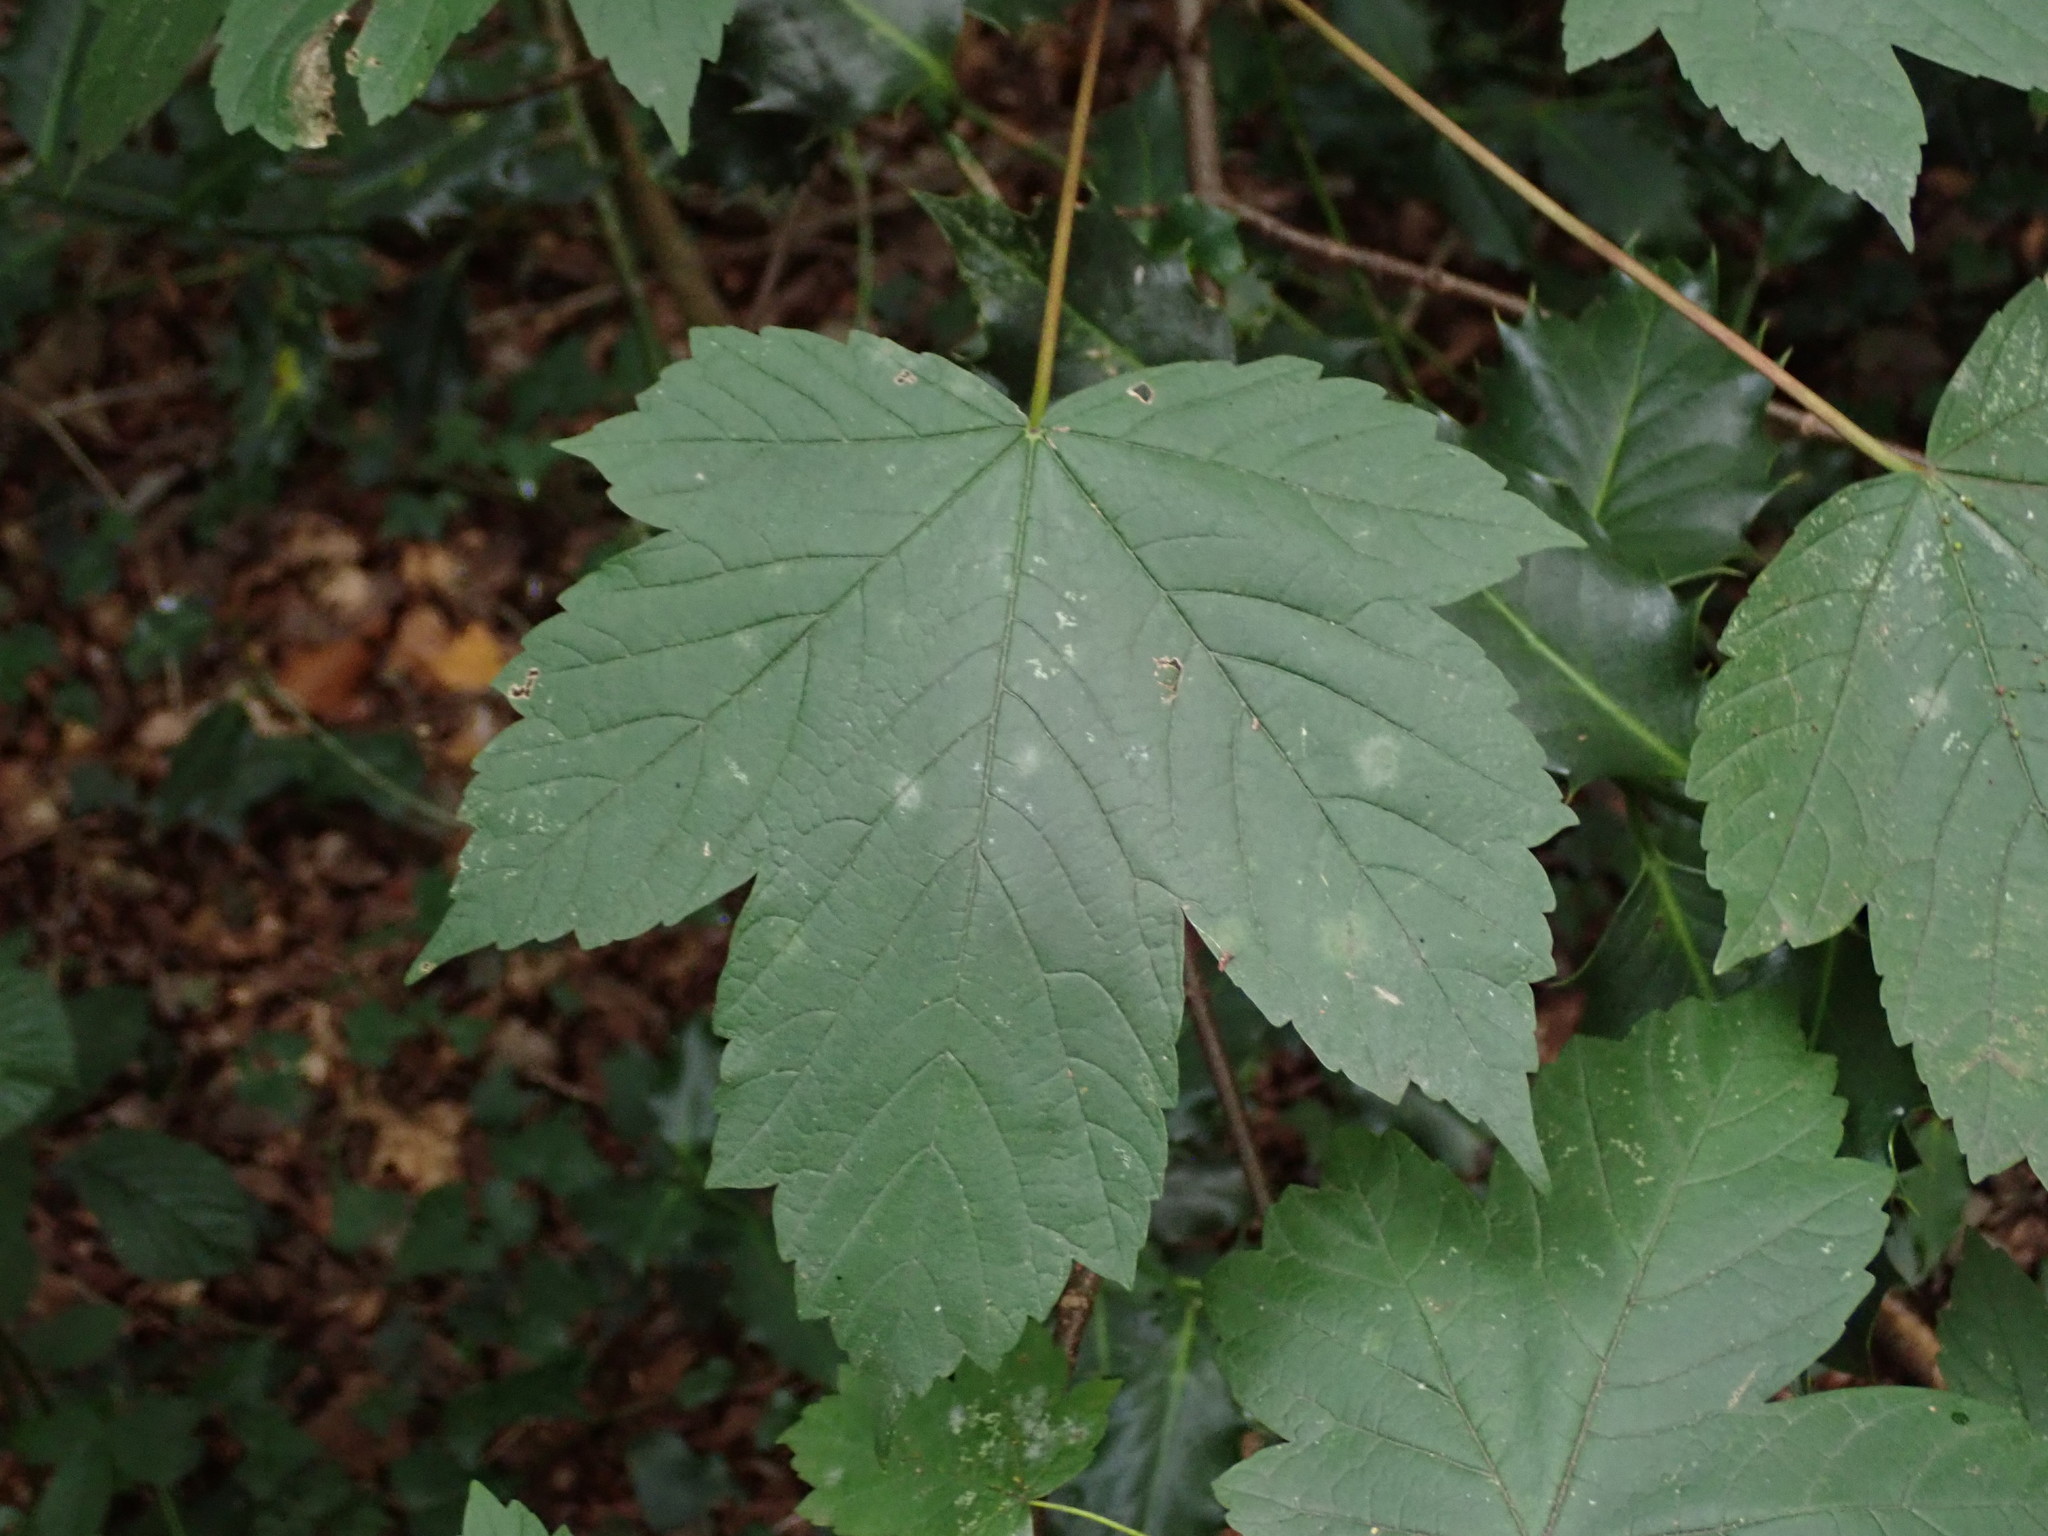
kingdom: Plantae
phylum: Tracheophyta
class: Magnoliopsida
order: Sapindales
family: Sapindaceae
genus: Acer
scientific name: Acer pseudoplatanus
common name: Sycamore
